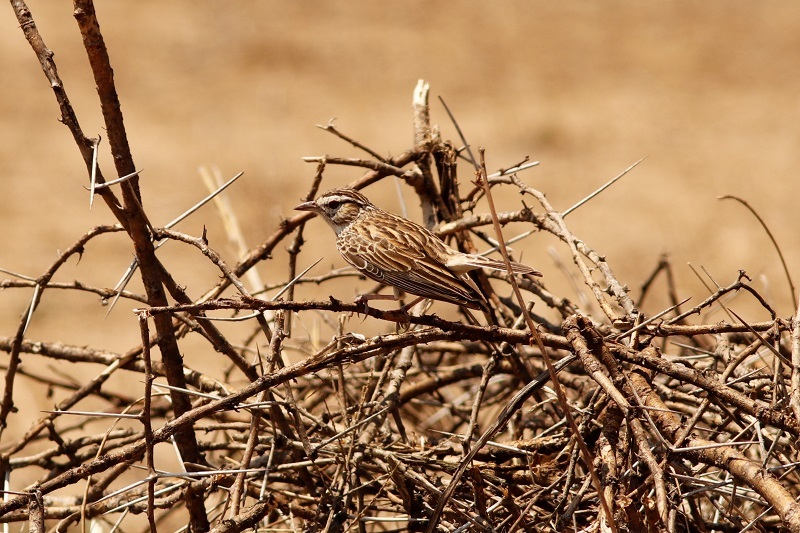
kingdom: Animalia
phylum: Chordata
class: Aves
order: Passeriformes
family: Alaudidae
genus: Calendulauda
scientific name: Calendulauda sabota
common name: Sabota lark
